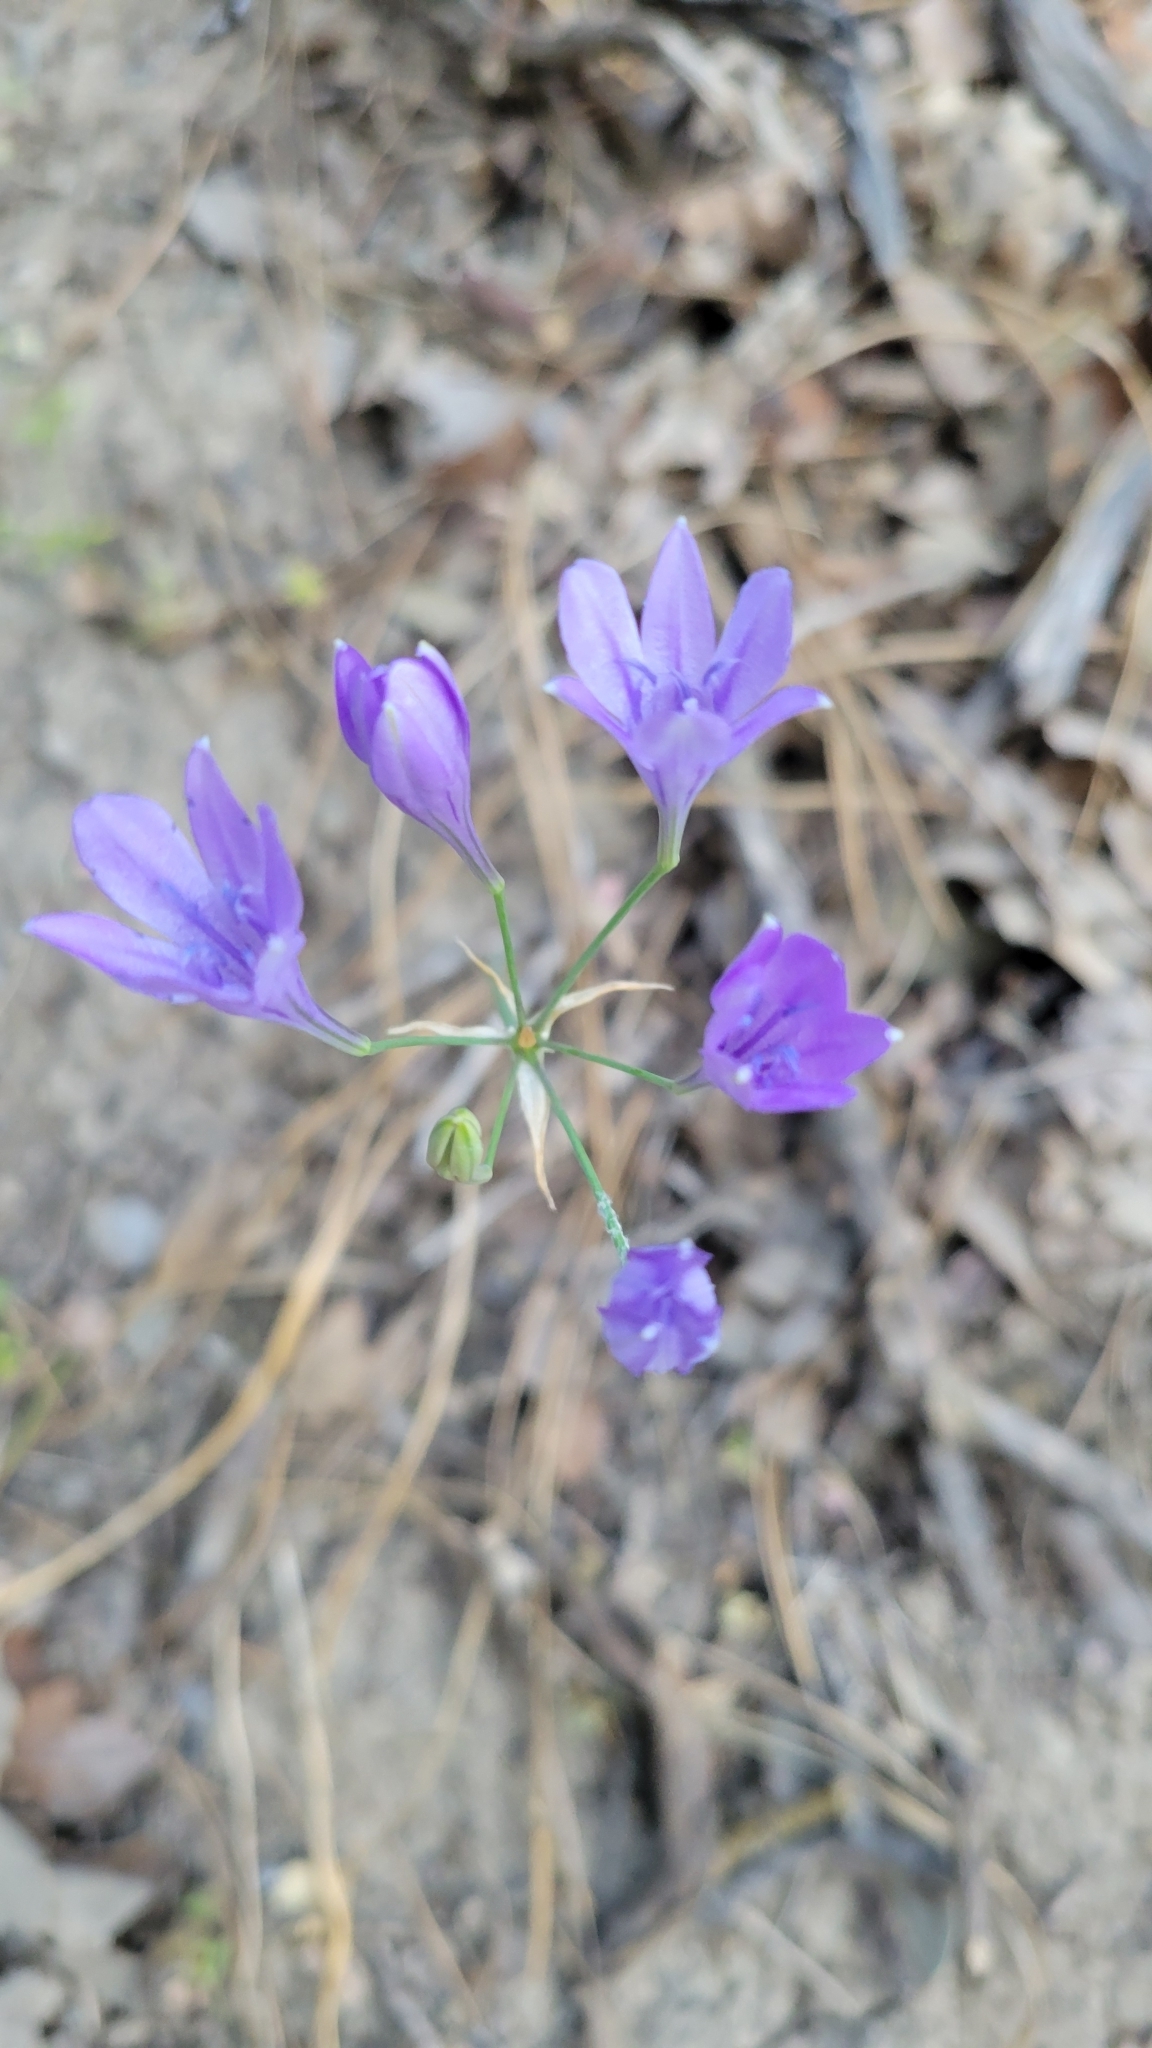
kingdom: Plantae
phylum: Tracheophyta
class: Liliopsida
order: Asparagales
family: Asparagaceae
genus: Triteleia
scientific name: Triteleia laxa
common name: Triplet-lily
